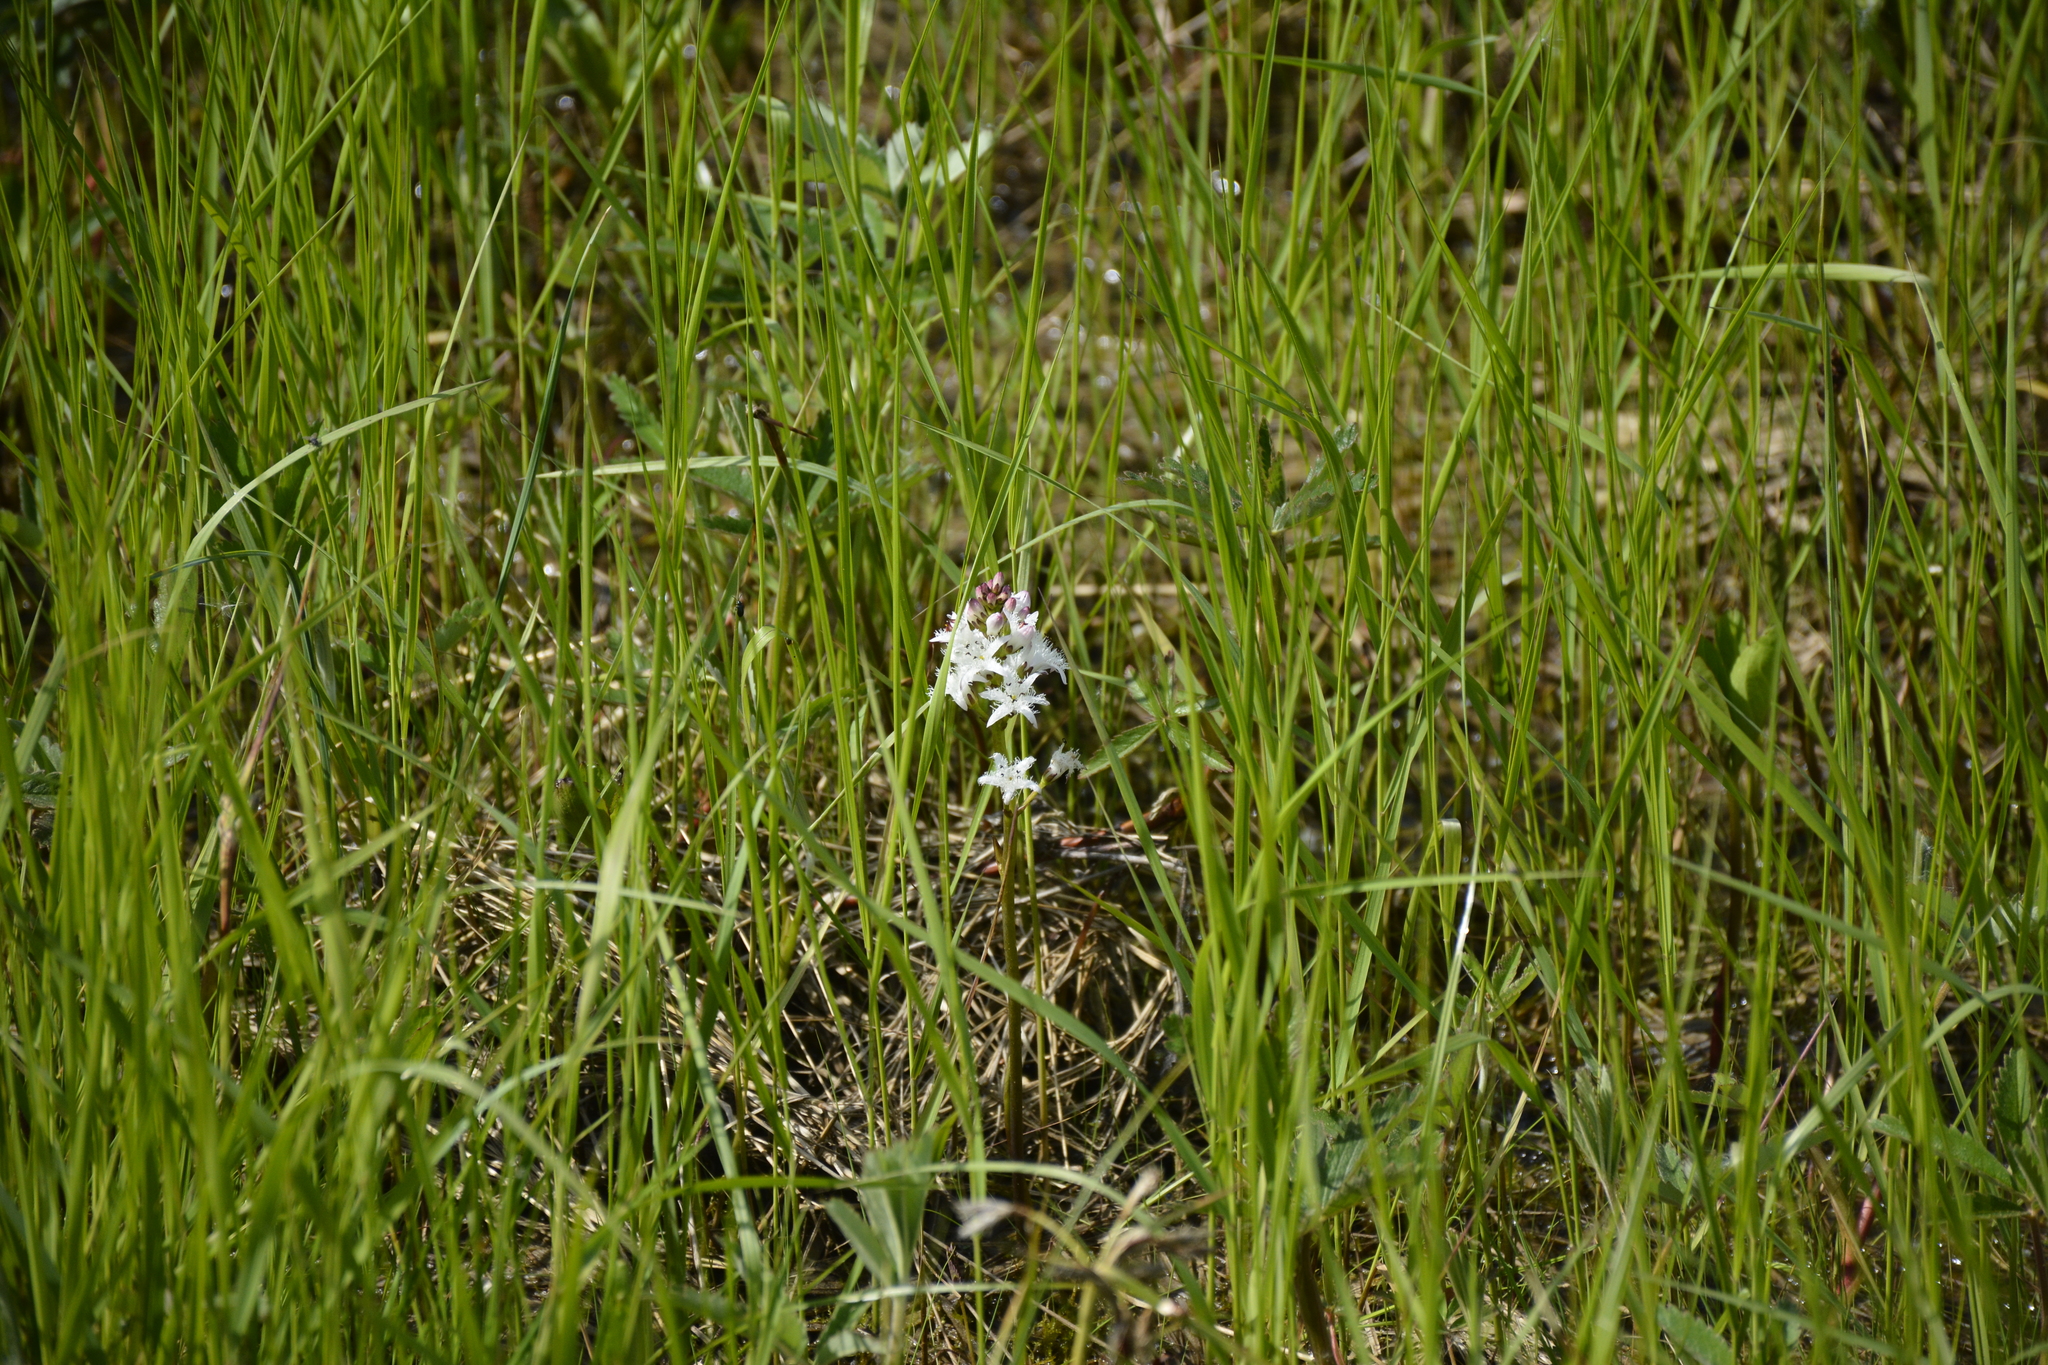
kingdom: Plantae
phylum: Tracheophyta
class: Magnoliopsida
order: Asterales
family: Menyanthaceae
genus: Menyanthes
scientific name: Menyanthes trifoliata
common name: Bogbean
